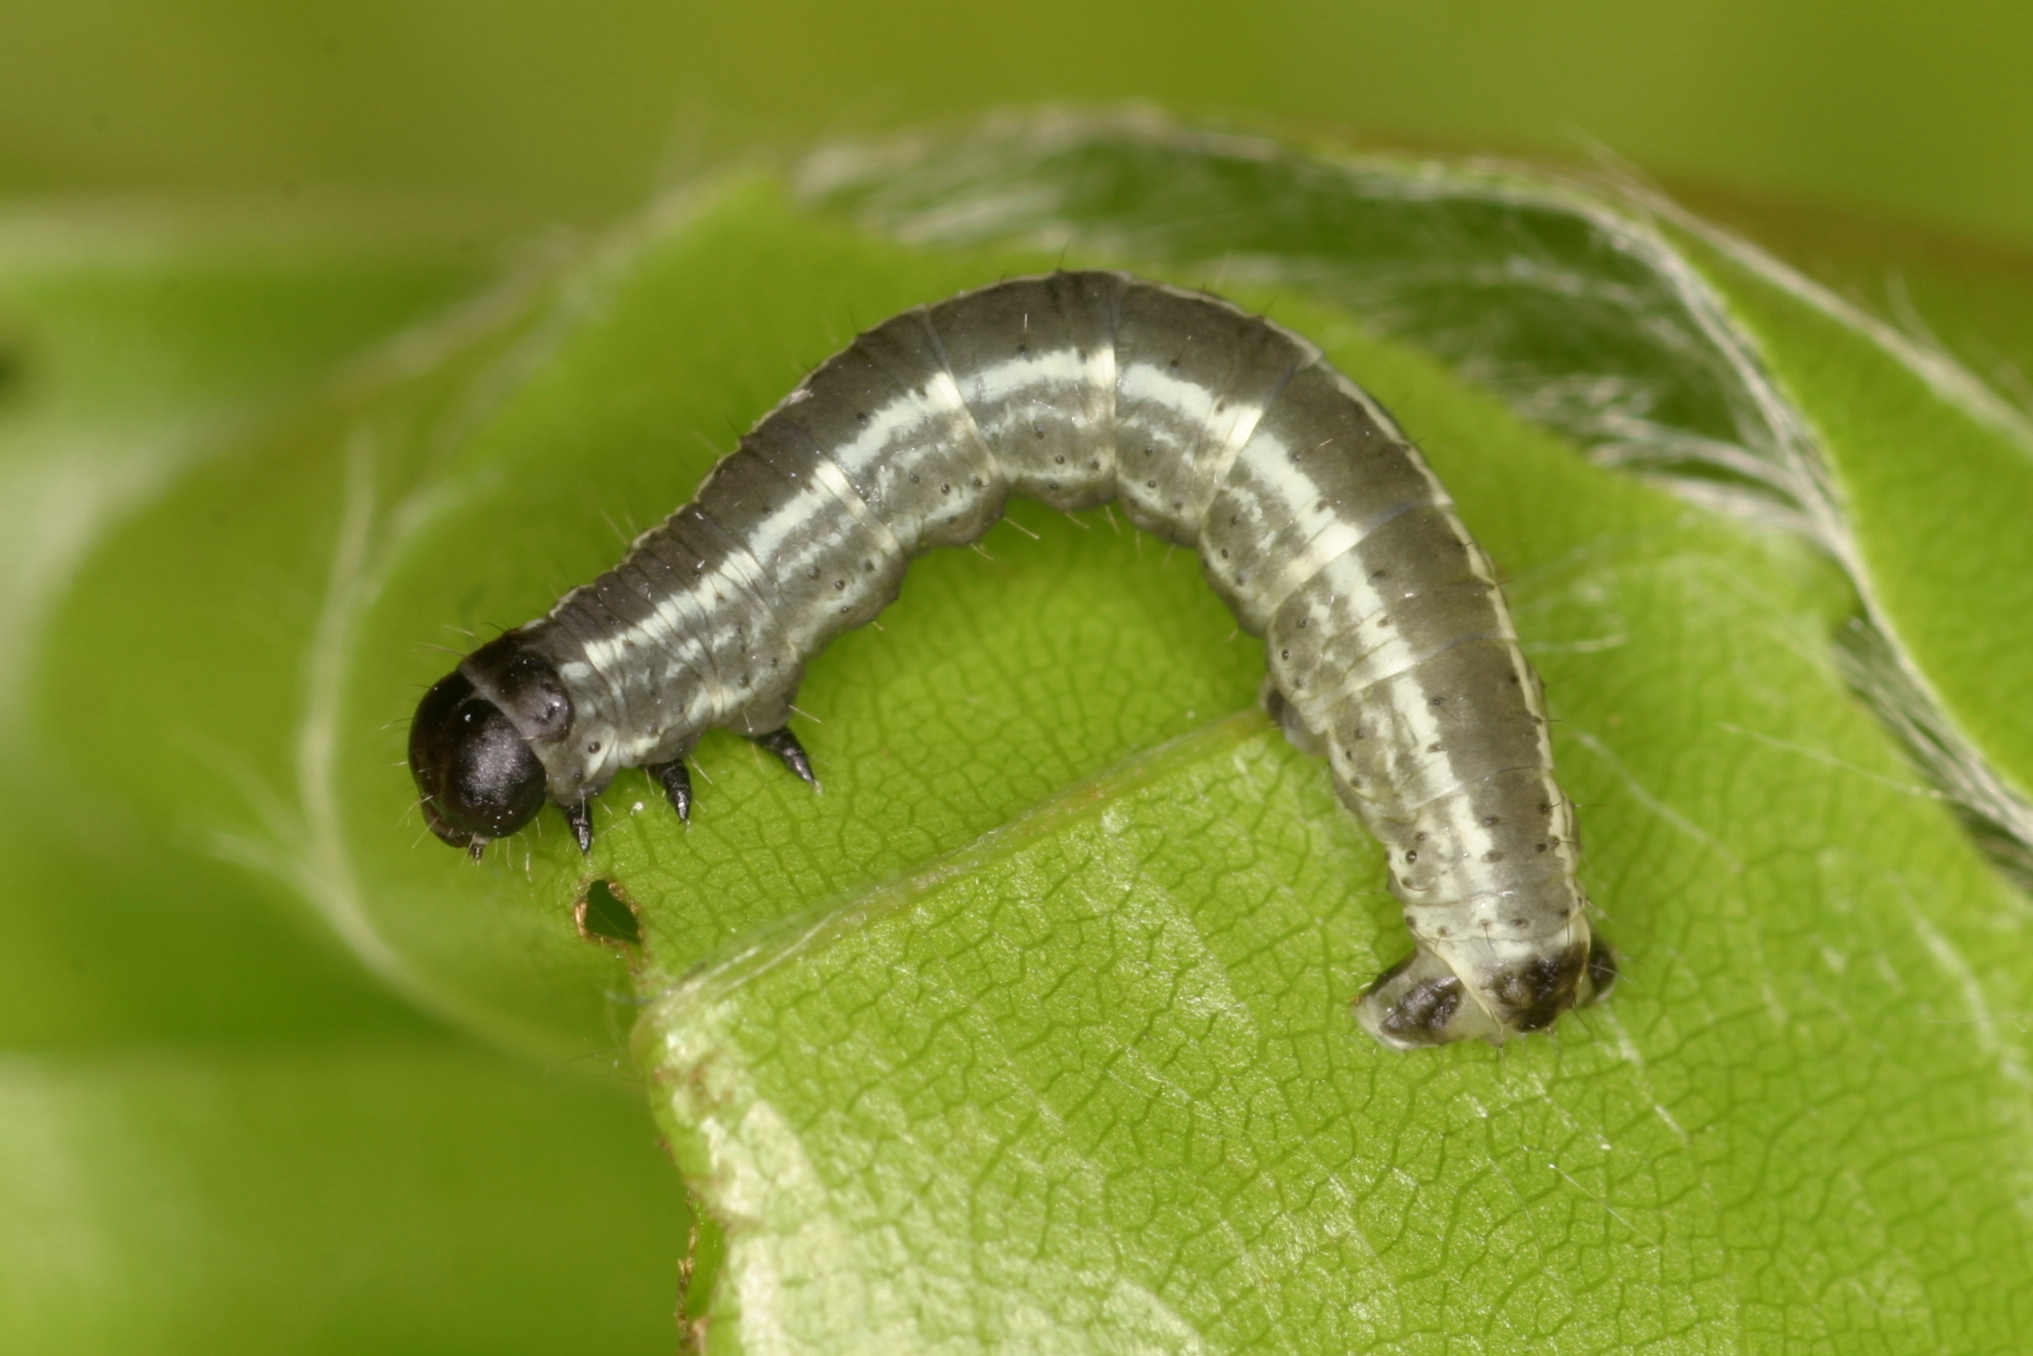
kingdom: Animalia
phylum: Arthropoda
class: Insecta
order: Lepidoptera
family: Geometridae
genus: Operophtera
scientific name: Operophtera fagata
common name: Northern winter moth
